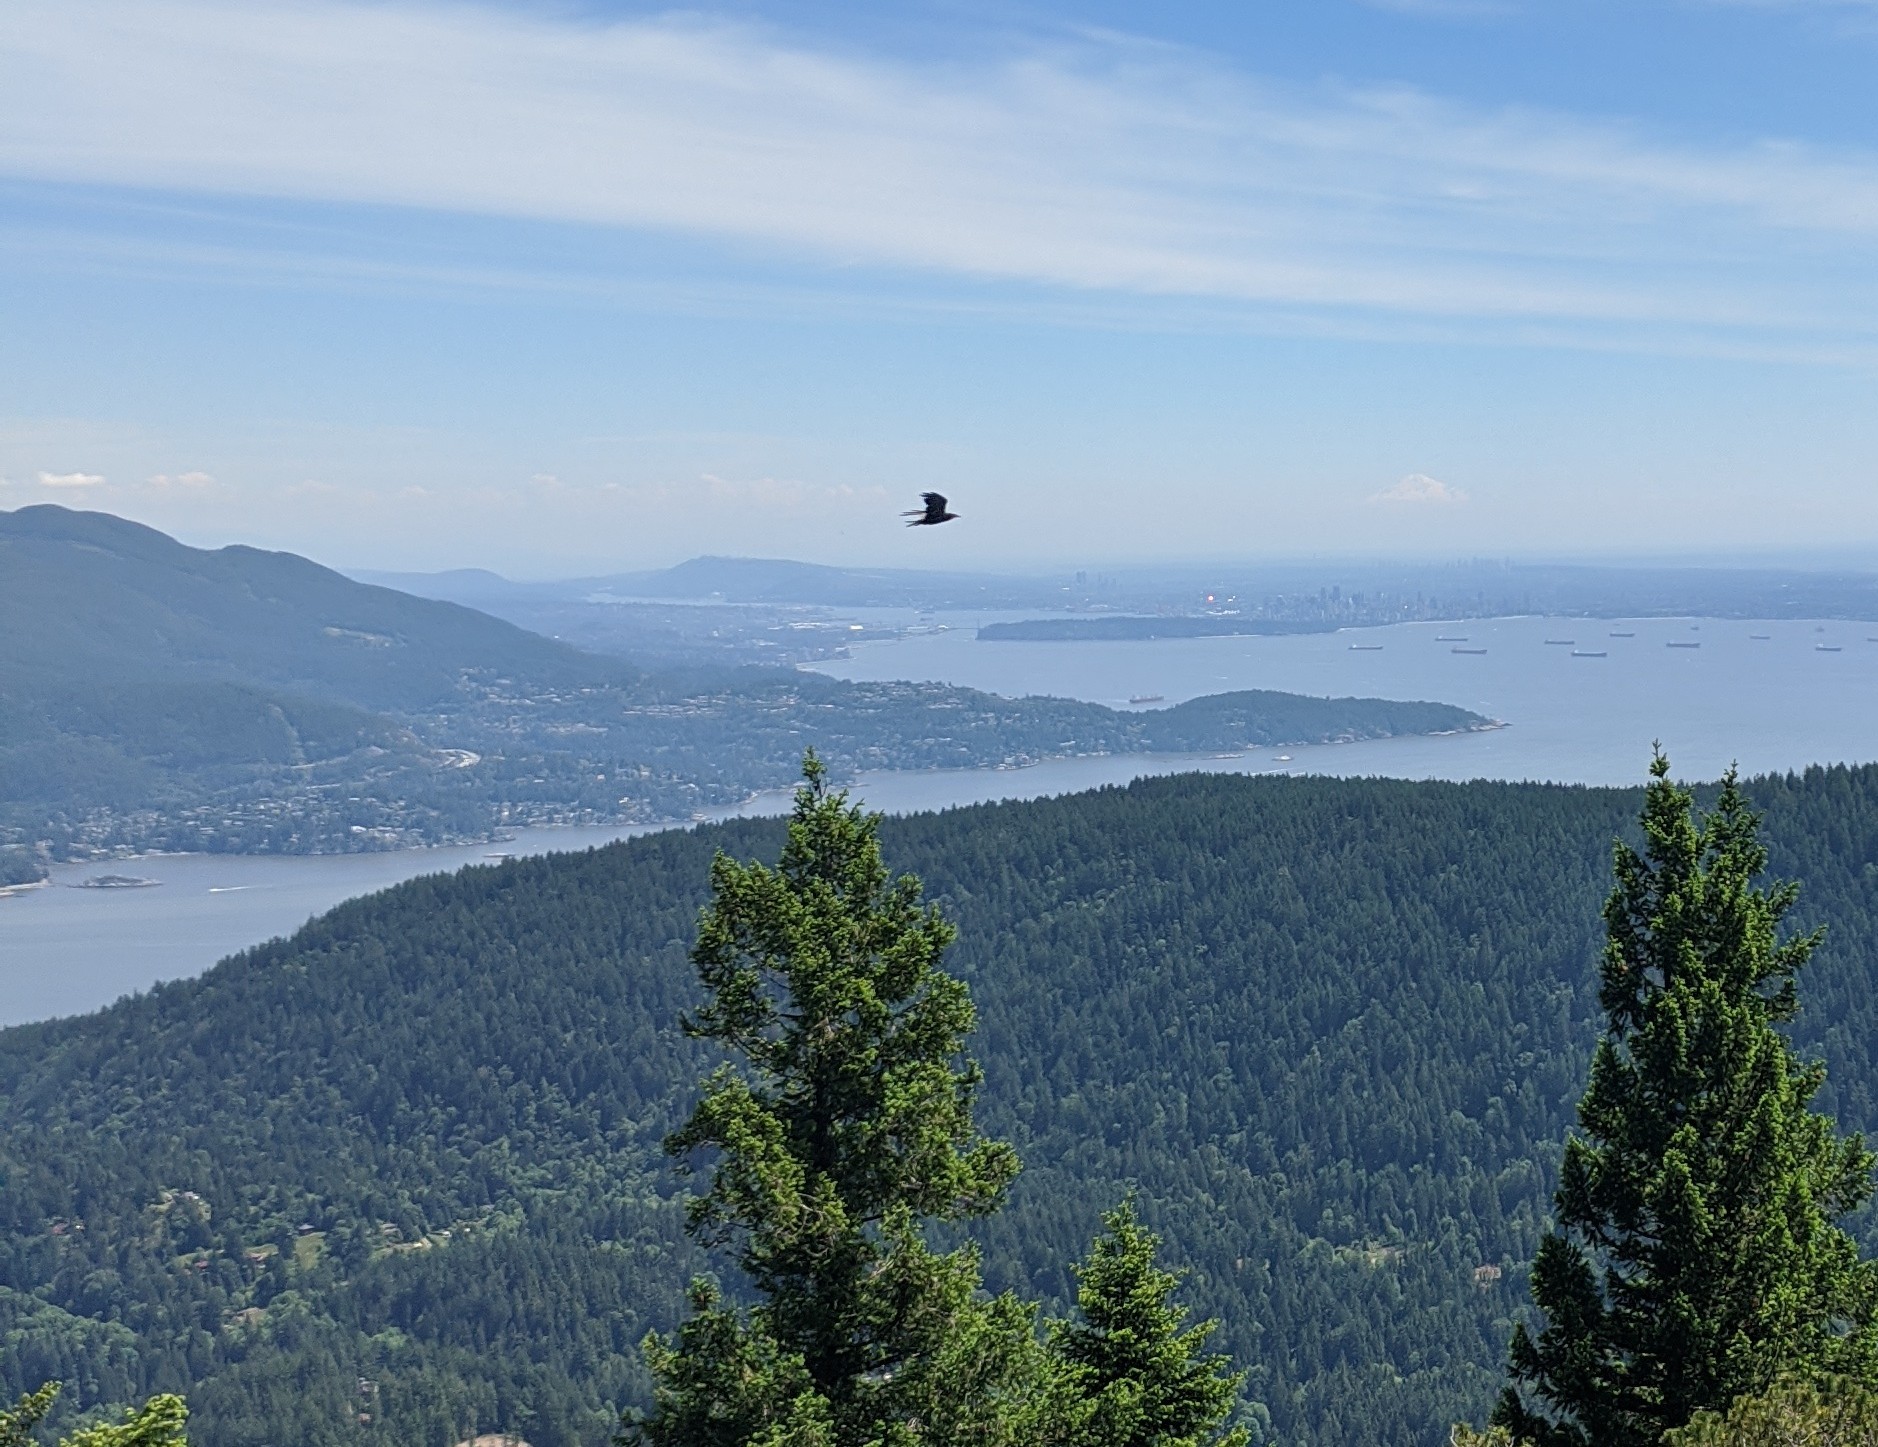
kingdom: Animalia
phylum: Chordata
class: Aves
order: Passeriformes
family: Corvidae
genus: Corvus
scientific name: Corvus corax
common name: Common raven
